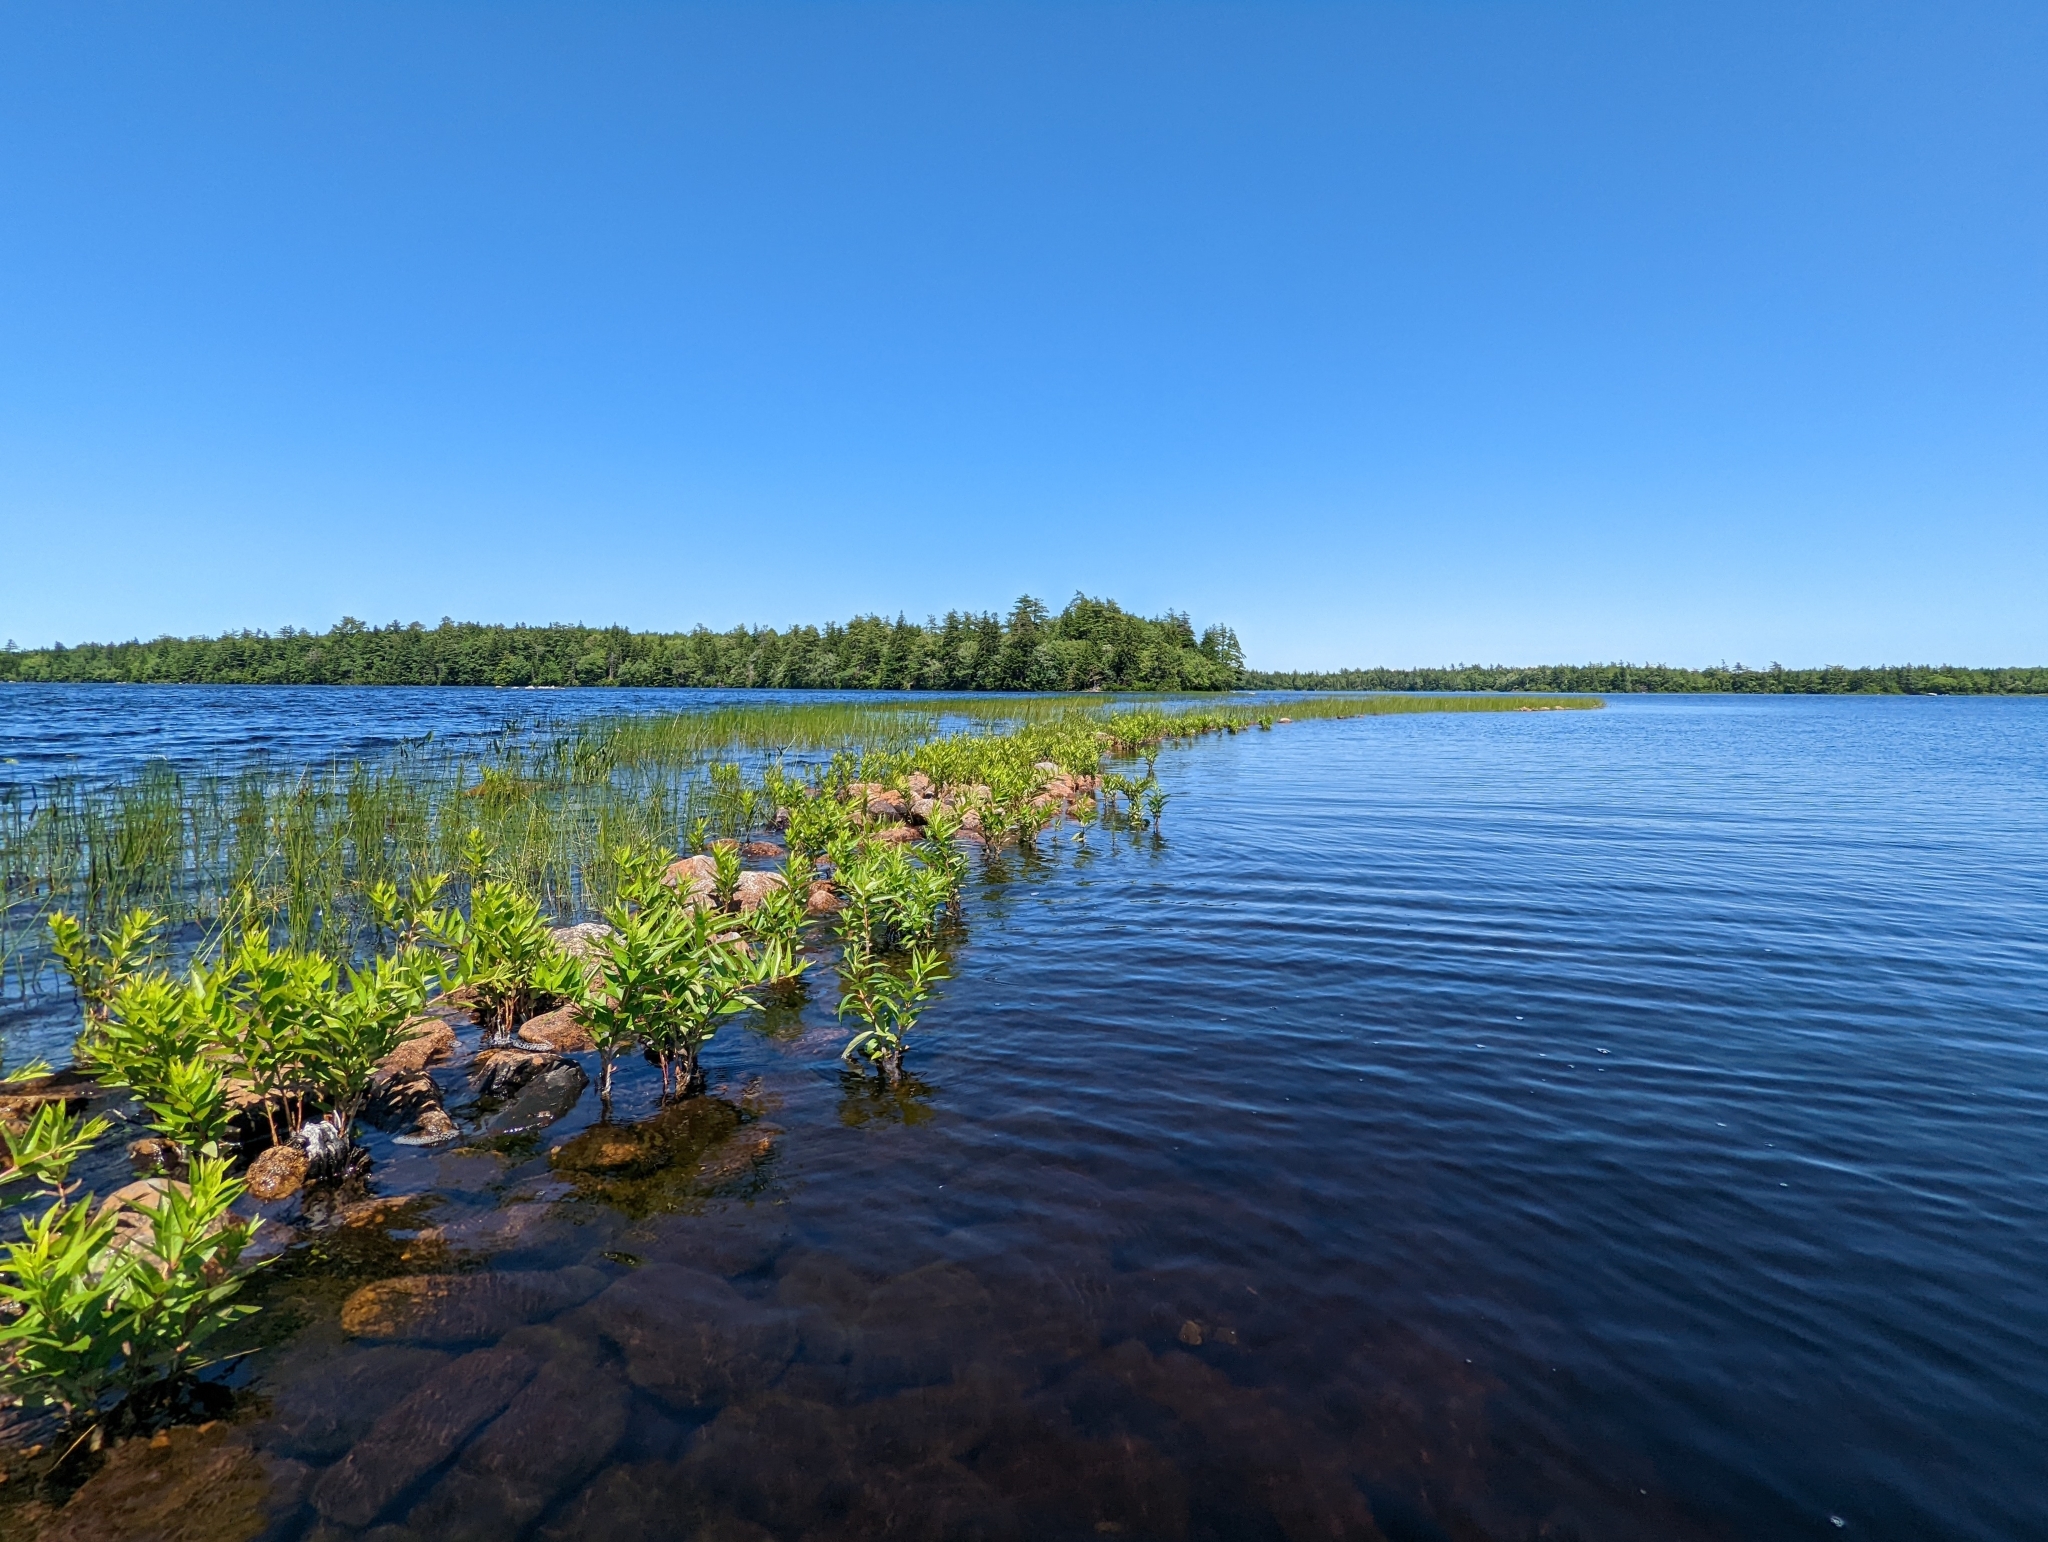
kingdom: Plantae
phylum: Tracheophyta
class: Magnoliopsida
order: Myrtales
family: Lythraceae
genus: Decodon
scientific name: Decodon verticillatus
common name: Hairy swamp loosestrife
